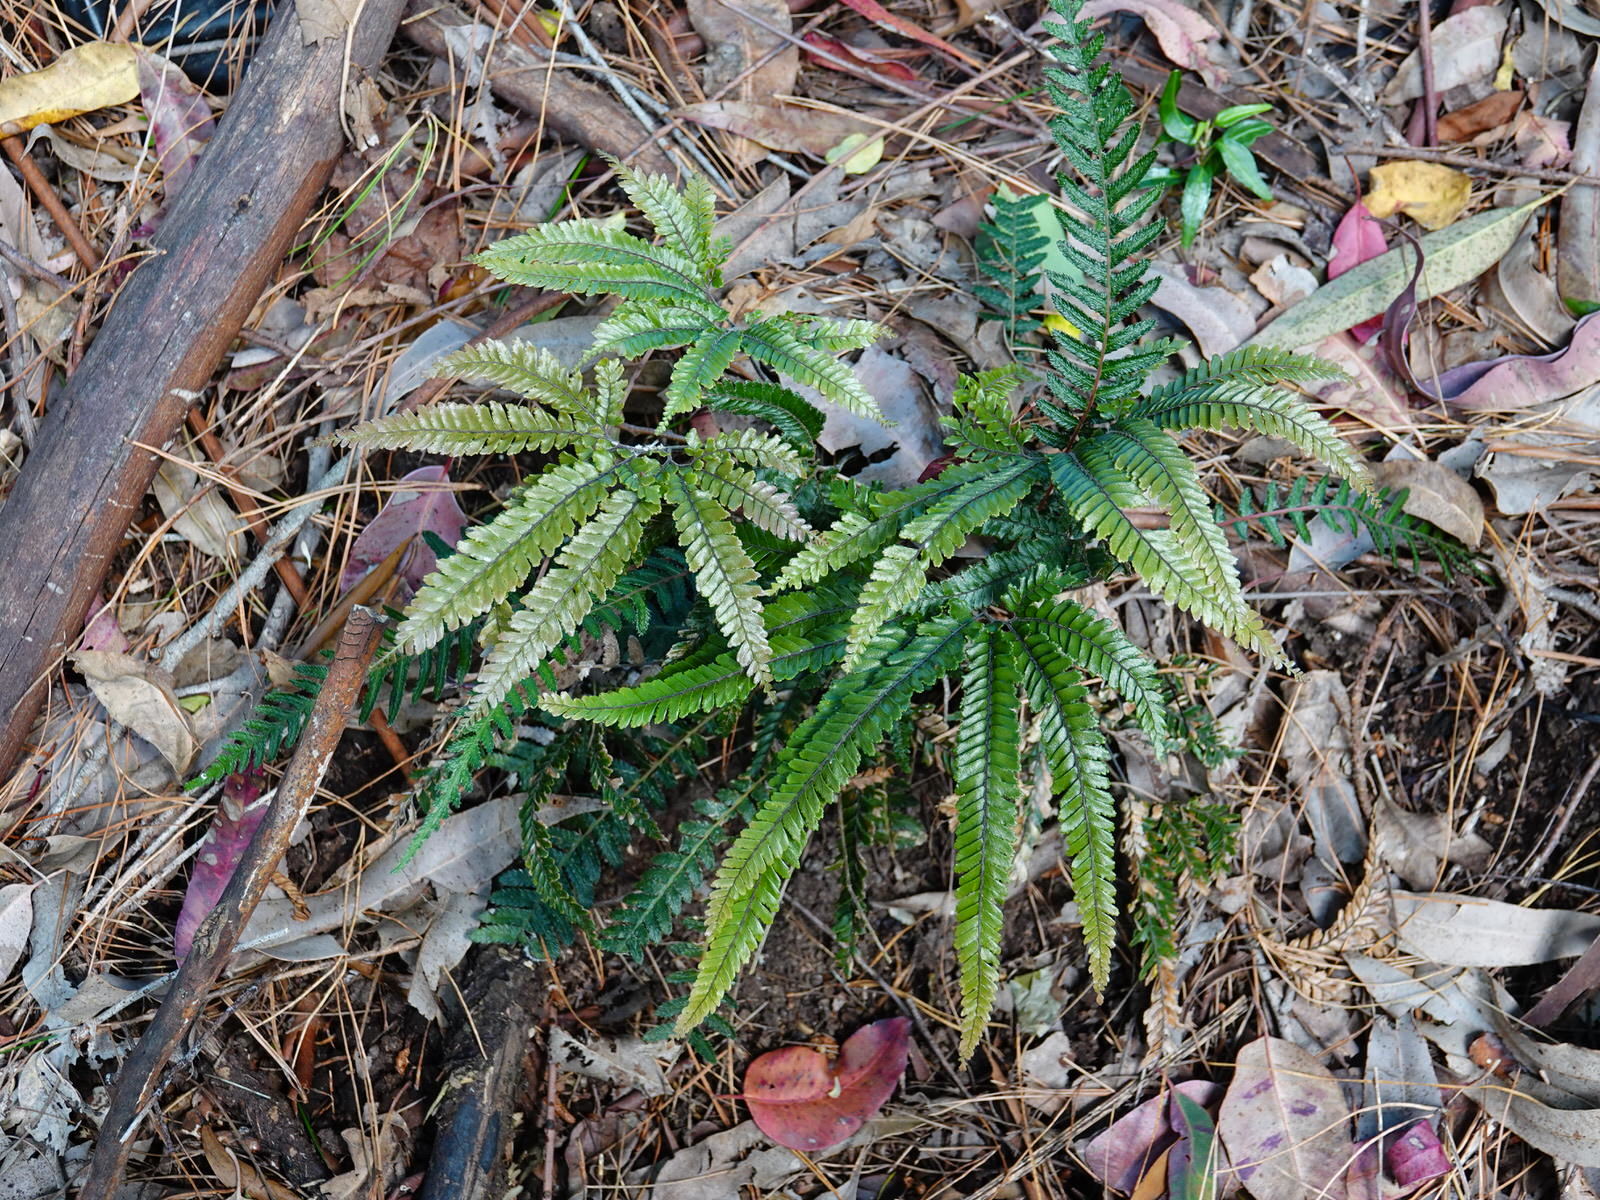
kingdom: Plantae
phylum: Tracheophyta
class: Polypodiopsida
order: Polypodiales
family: Pteridaceae
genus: Adiantum
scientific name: Adiantum hispidulum
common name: Rough maidenhair
